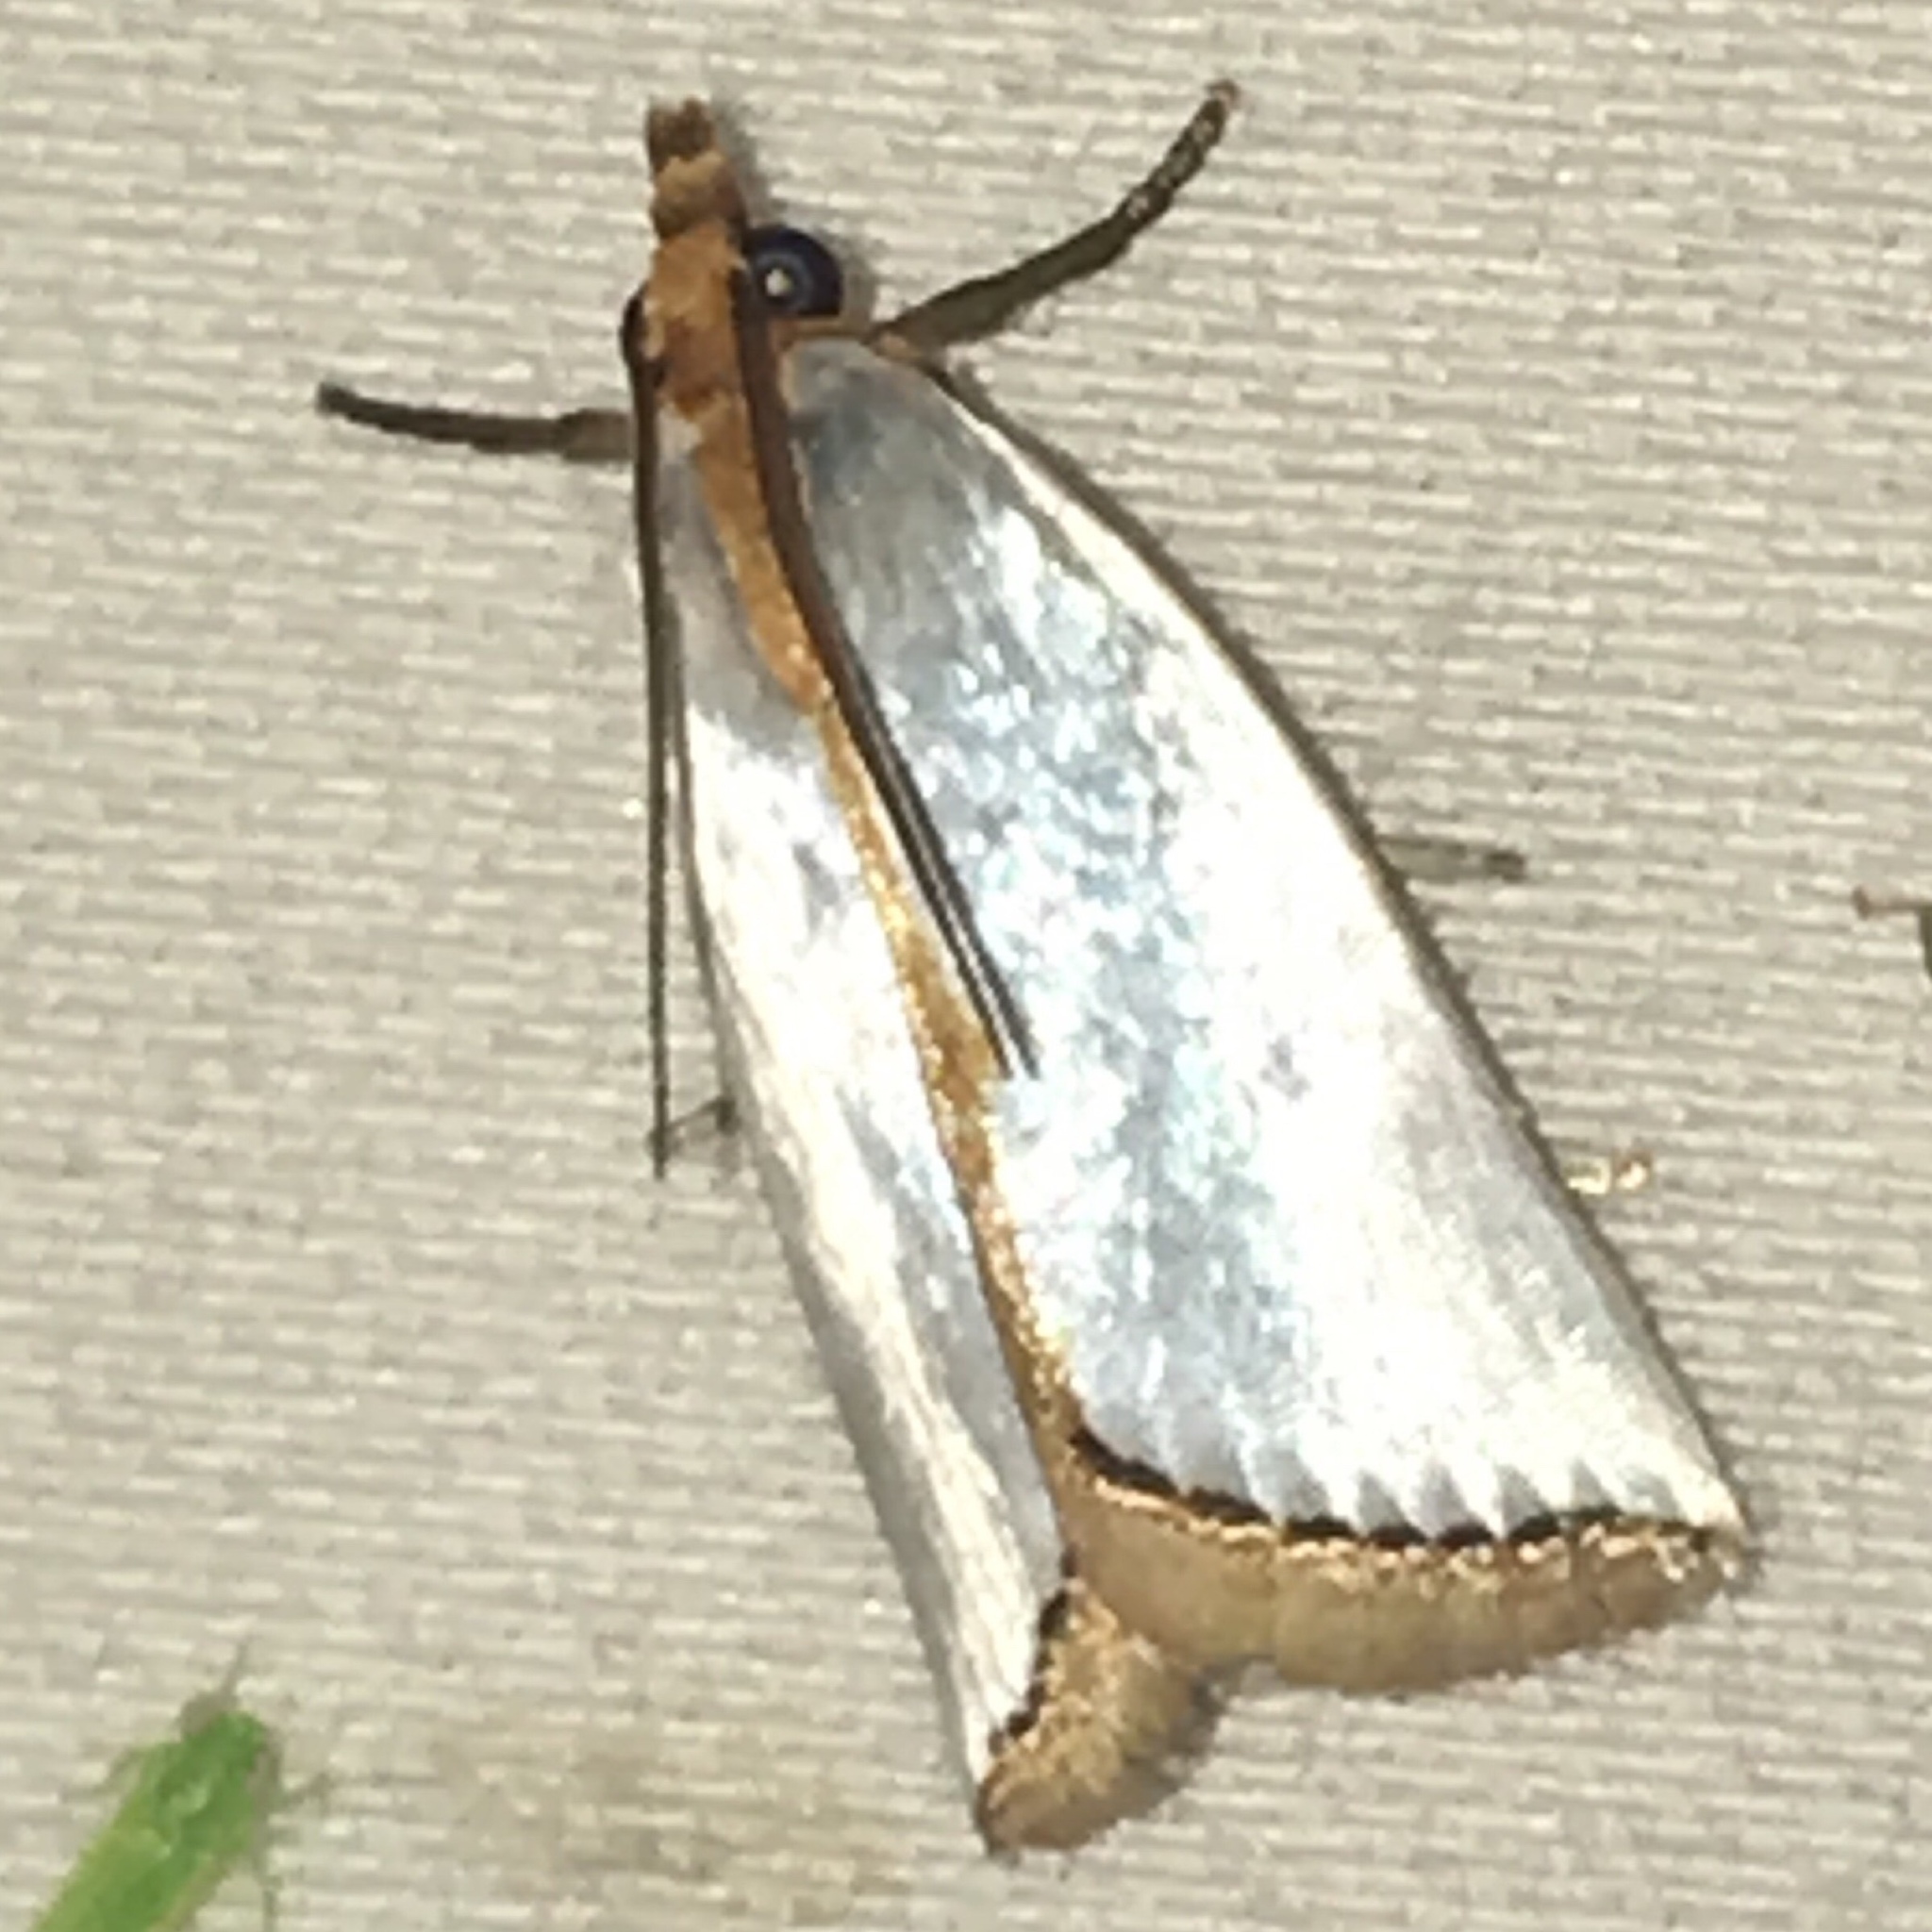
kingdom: Animalia
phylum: Arthropoda
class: Insecta
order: Lepidoptera
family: Crambidae
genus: Argyria
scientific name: Argyria nivalis
